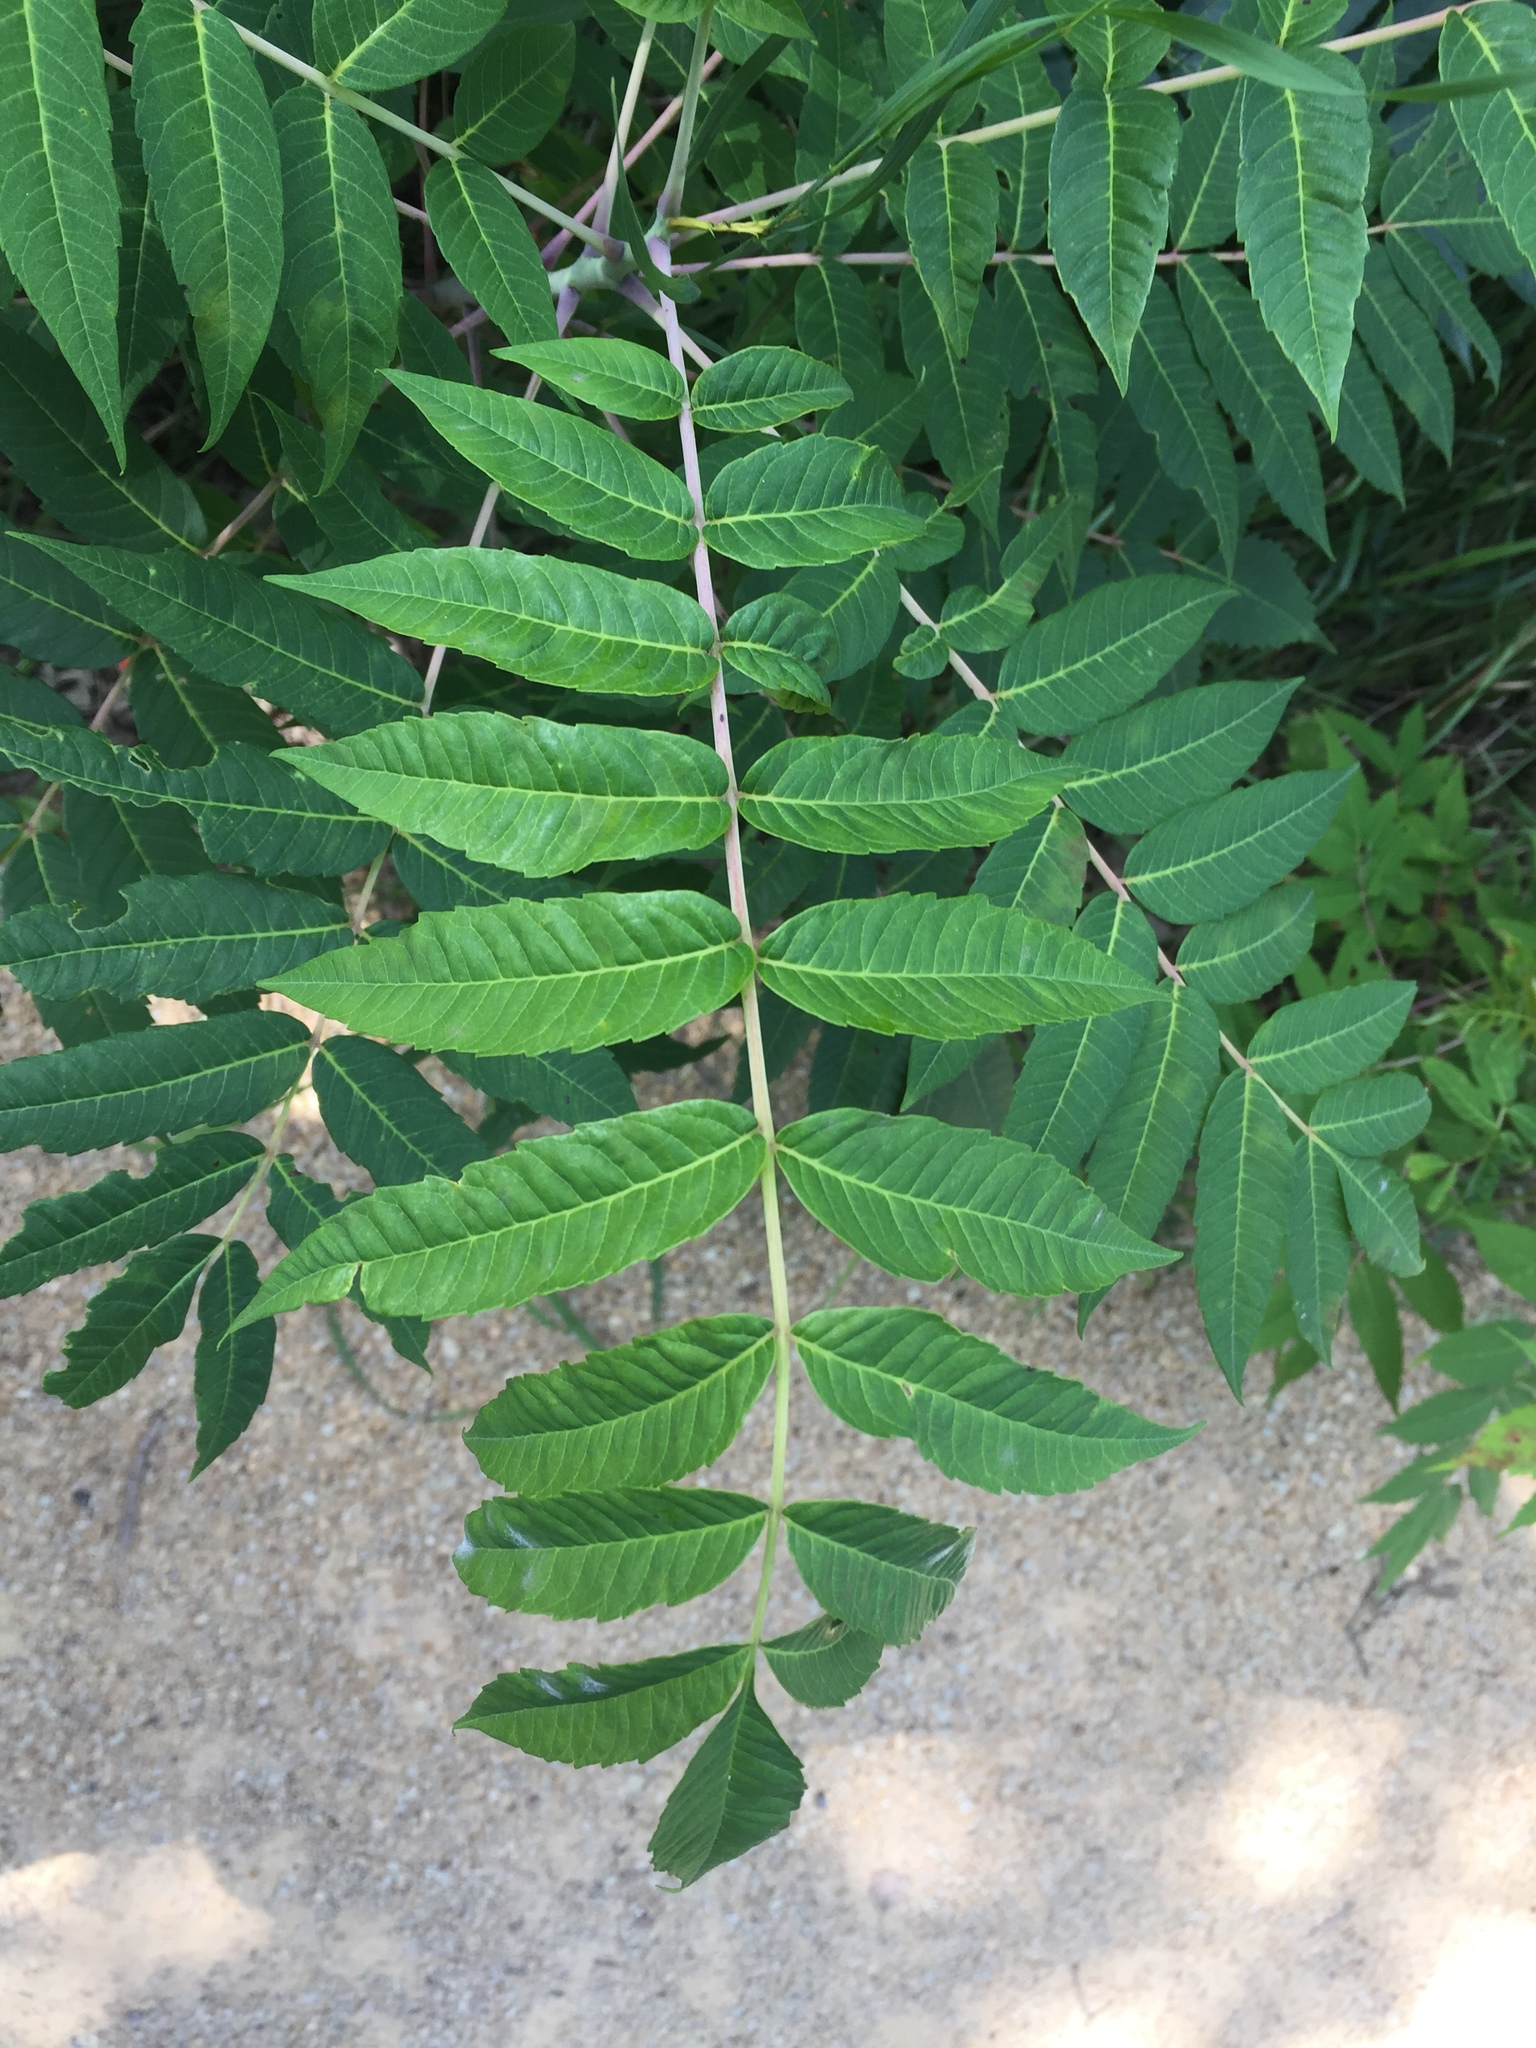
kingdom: Plantae
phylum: Tracheophyta
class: Magnoliopsida
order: Sapindales
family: Anacardiaceae
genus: Rhus
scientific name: Rhus glabra
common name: Scarlet sumac
